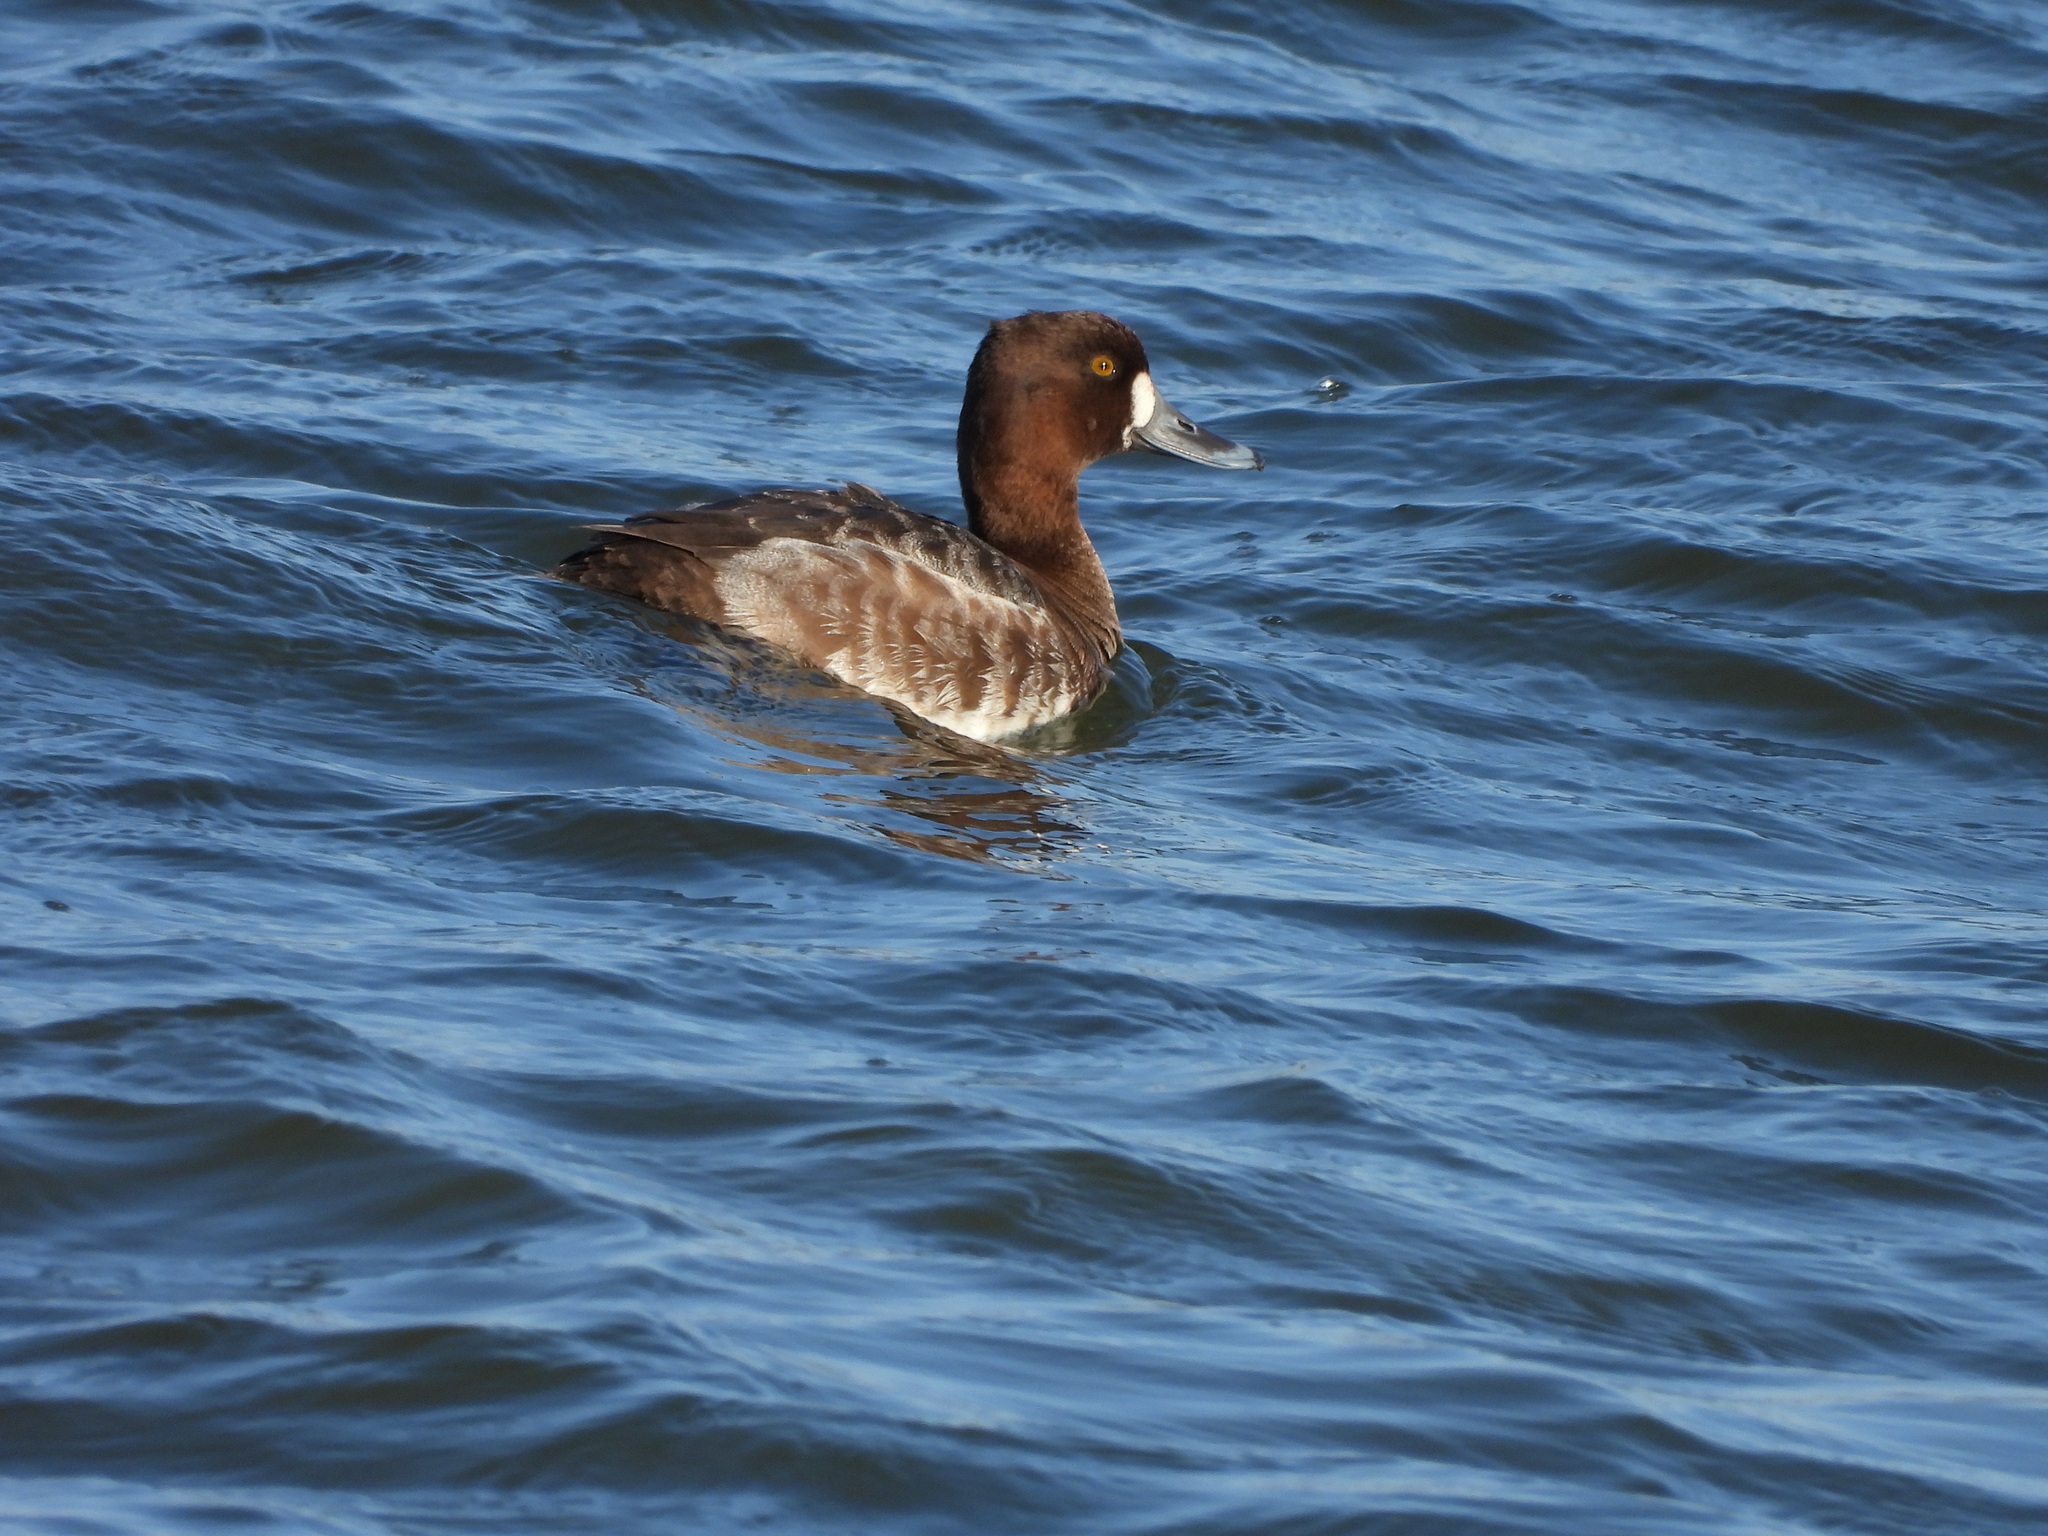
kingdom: Animalia
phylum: Chordata
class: Aves
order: Anseriformes
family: Anatidae
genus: Aythya
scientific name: Aythya marila
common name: Greater scaup
